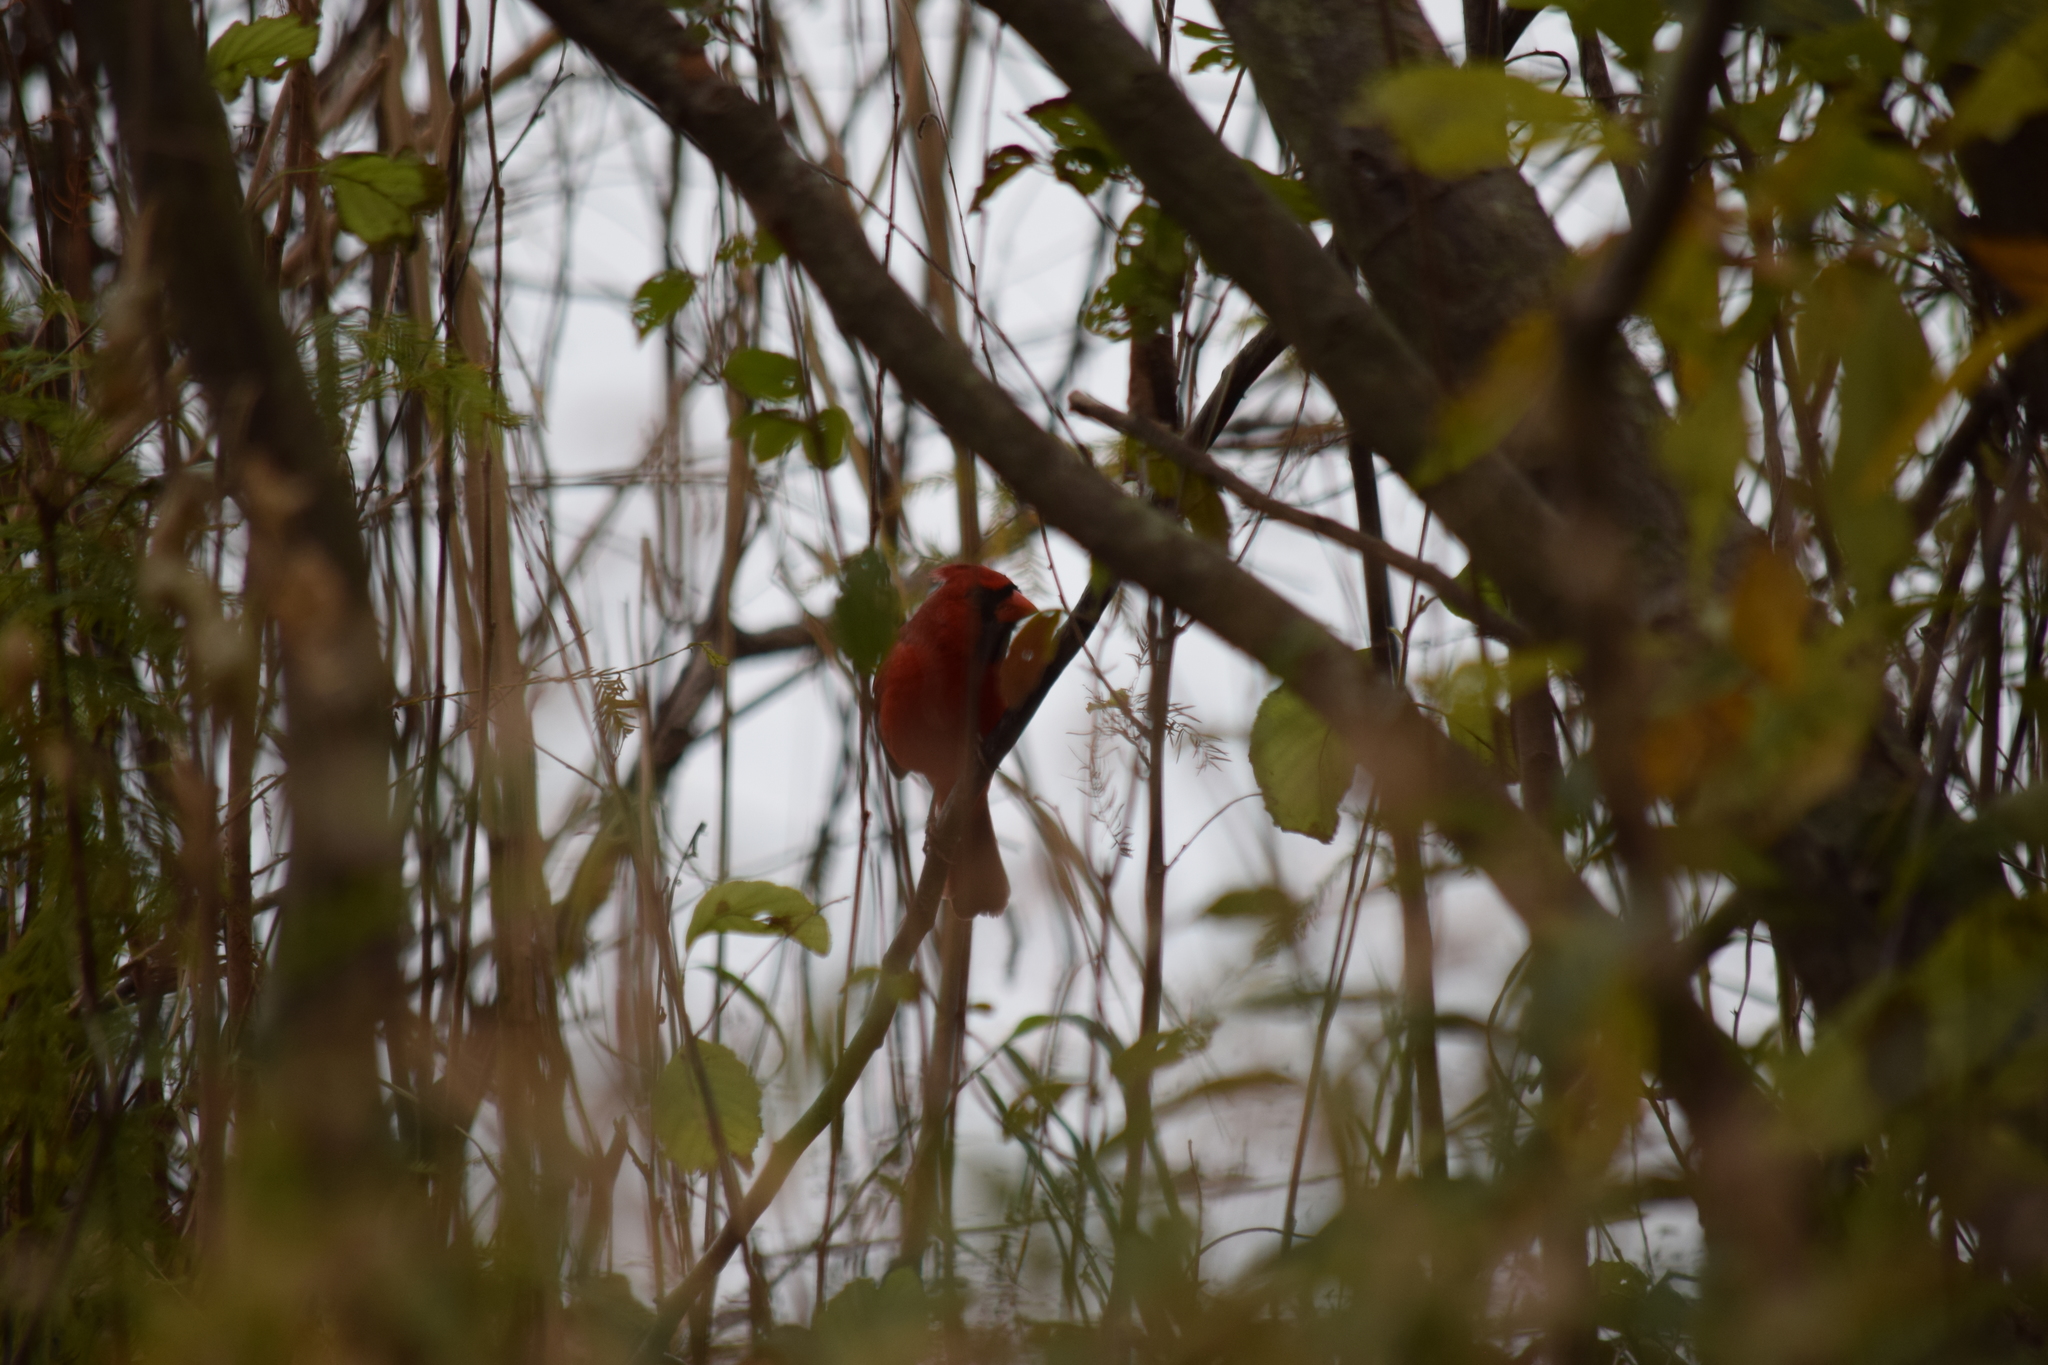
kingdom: Animalia
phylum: Chordata
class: Aves
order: Passeriformes
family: Cardinalidae
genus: Cardinalis
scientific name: Cardinalis cardinalis
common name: Northern cardinal
